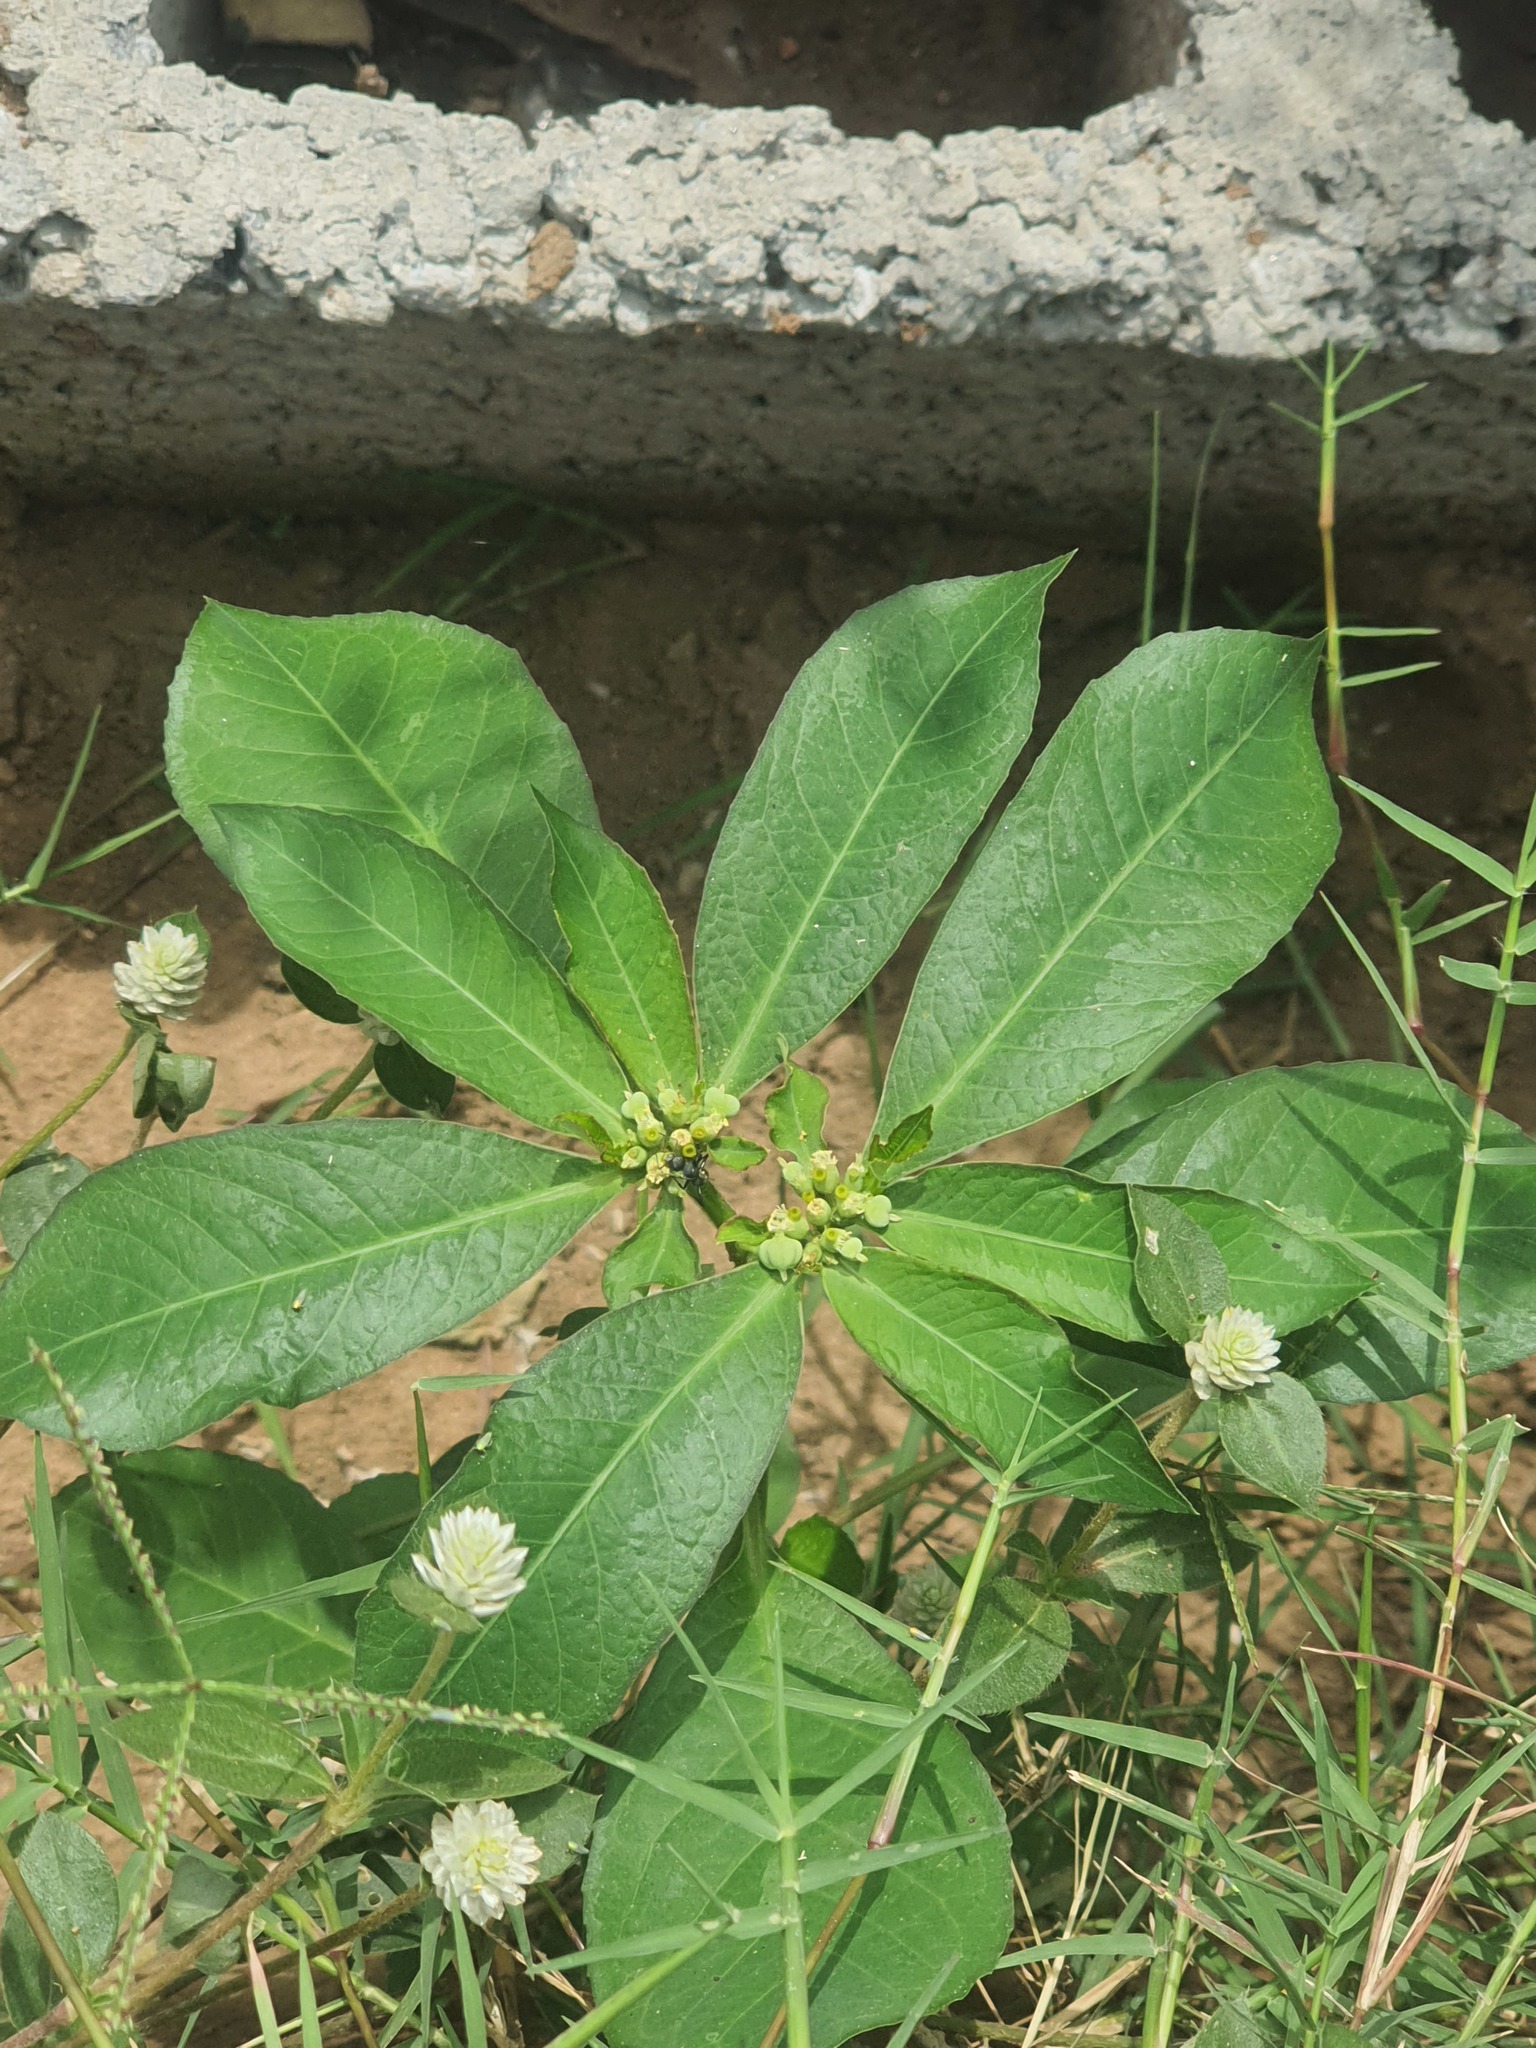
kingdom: Plantae
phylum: Tracheophyta
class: Magnoliopsida
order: Malpighiales
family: Euphorbiaceae
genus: Euphorbia
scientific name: Euphorbia heterophylla
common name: Mexican fireplant
